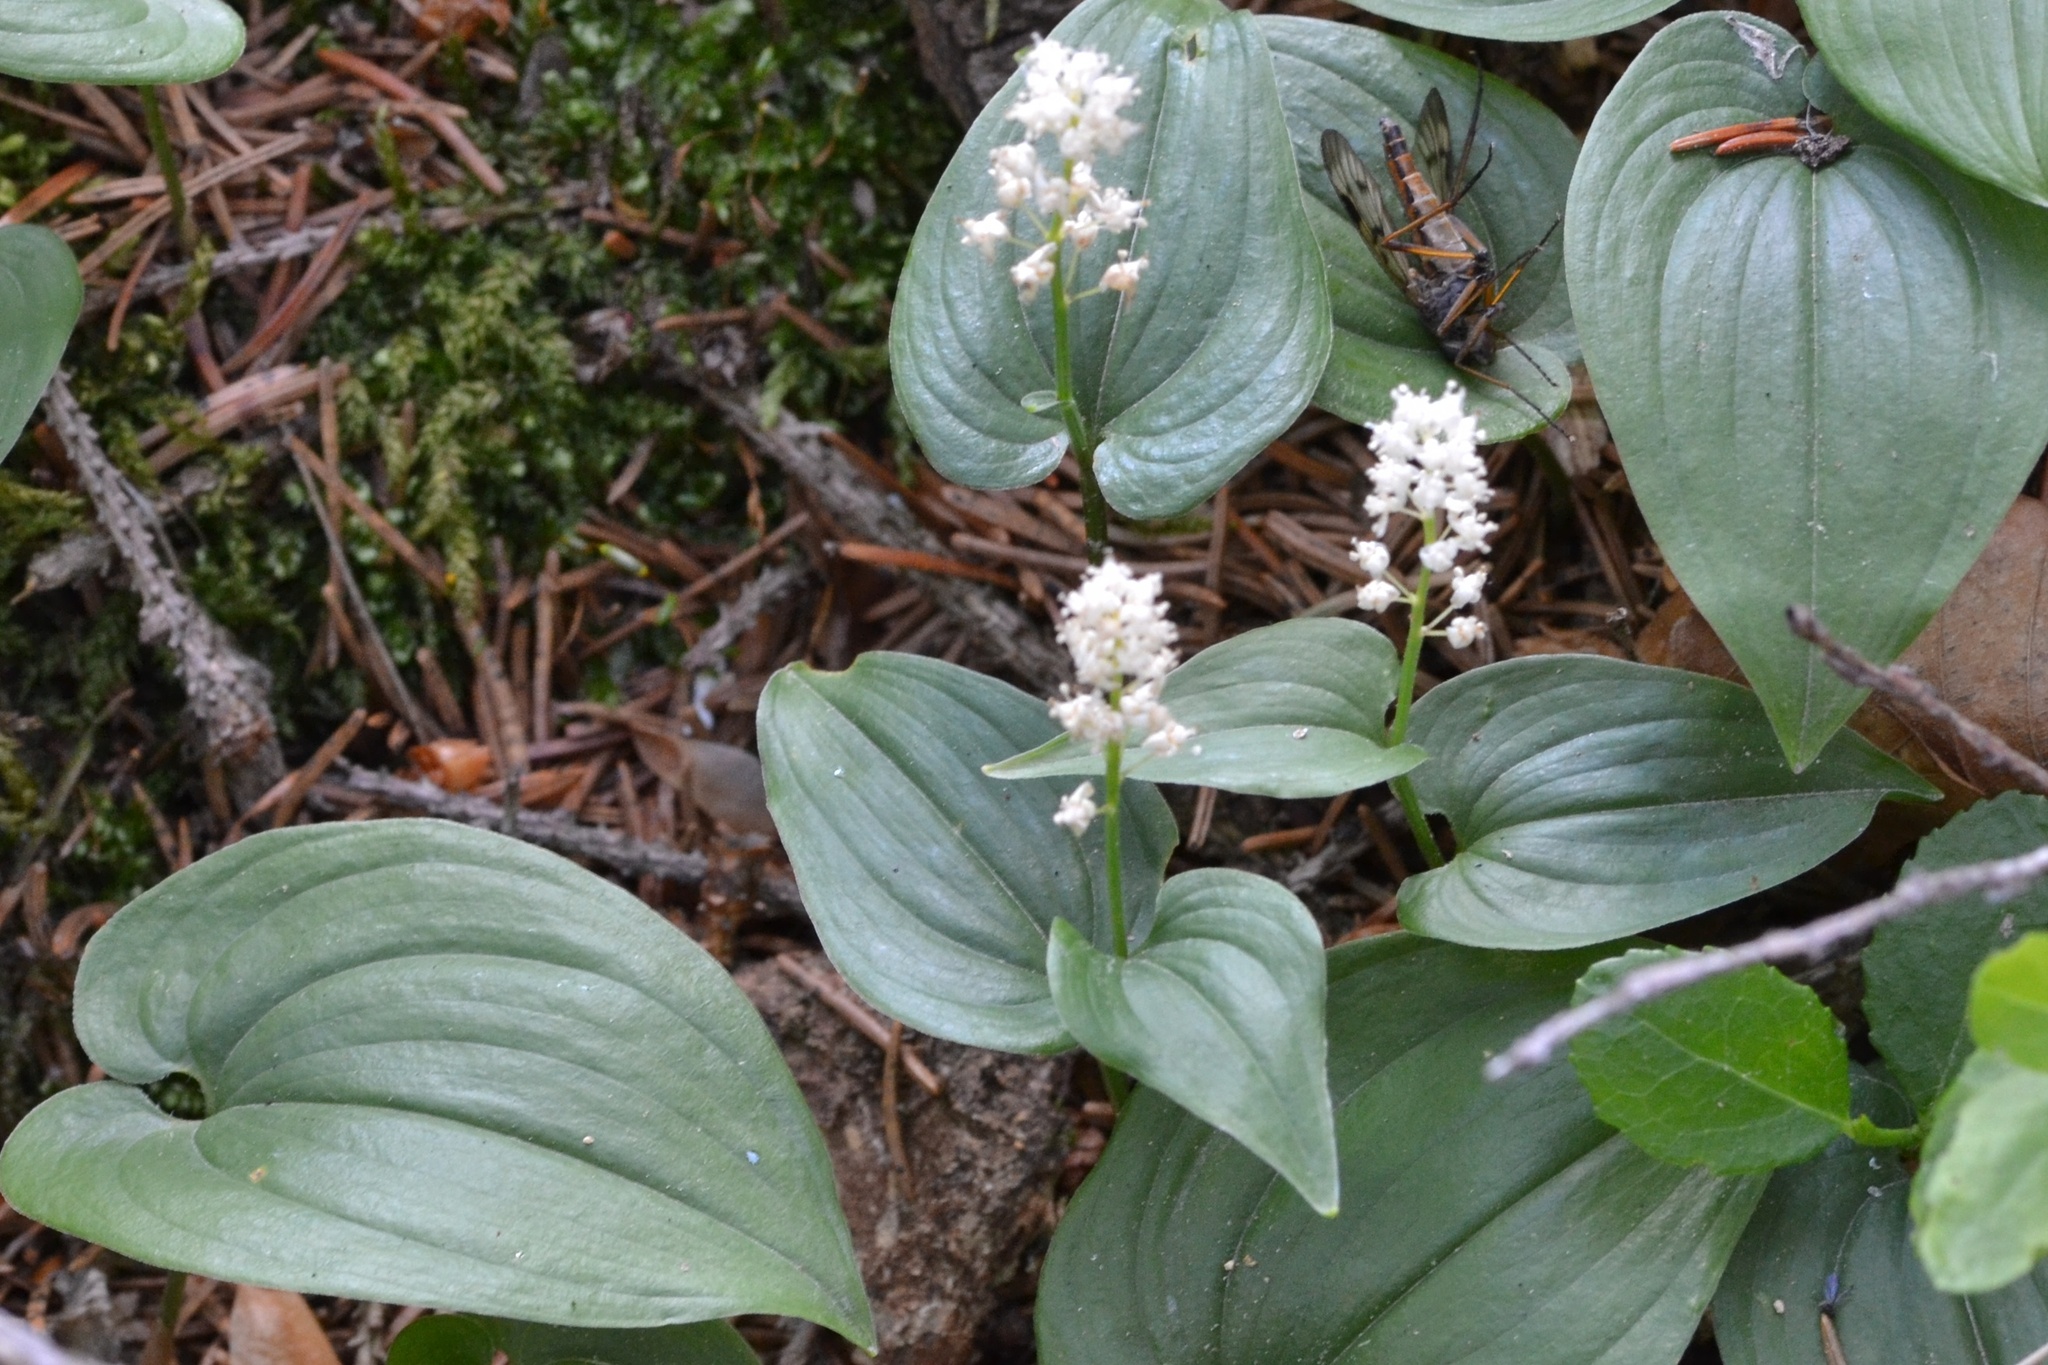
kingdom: Plantae
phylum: Tracheophyta
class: Liliopsida
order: Asparagales
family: Asparagaceae
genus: Maianthemum
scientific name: Maianthemum bifolium
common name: May lily
